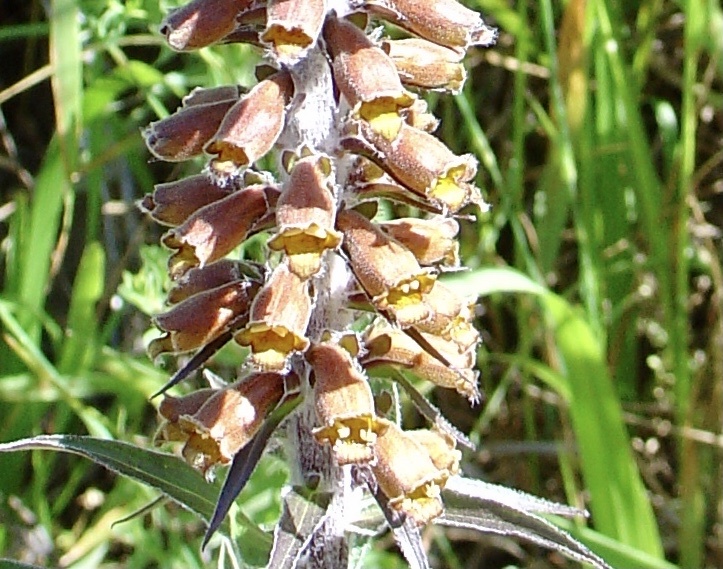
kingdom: Plantae
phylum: Tracheophyta
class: Magnoliopsida
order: Lamiales
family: Plantaginaceae
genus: Digitalis
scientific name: Digitalis parviflora
